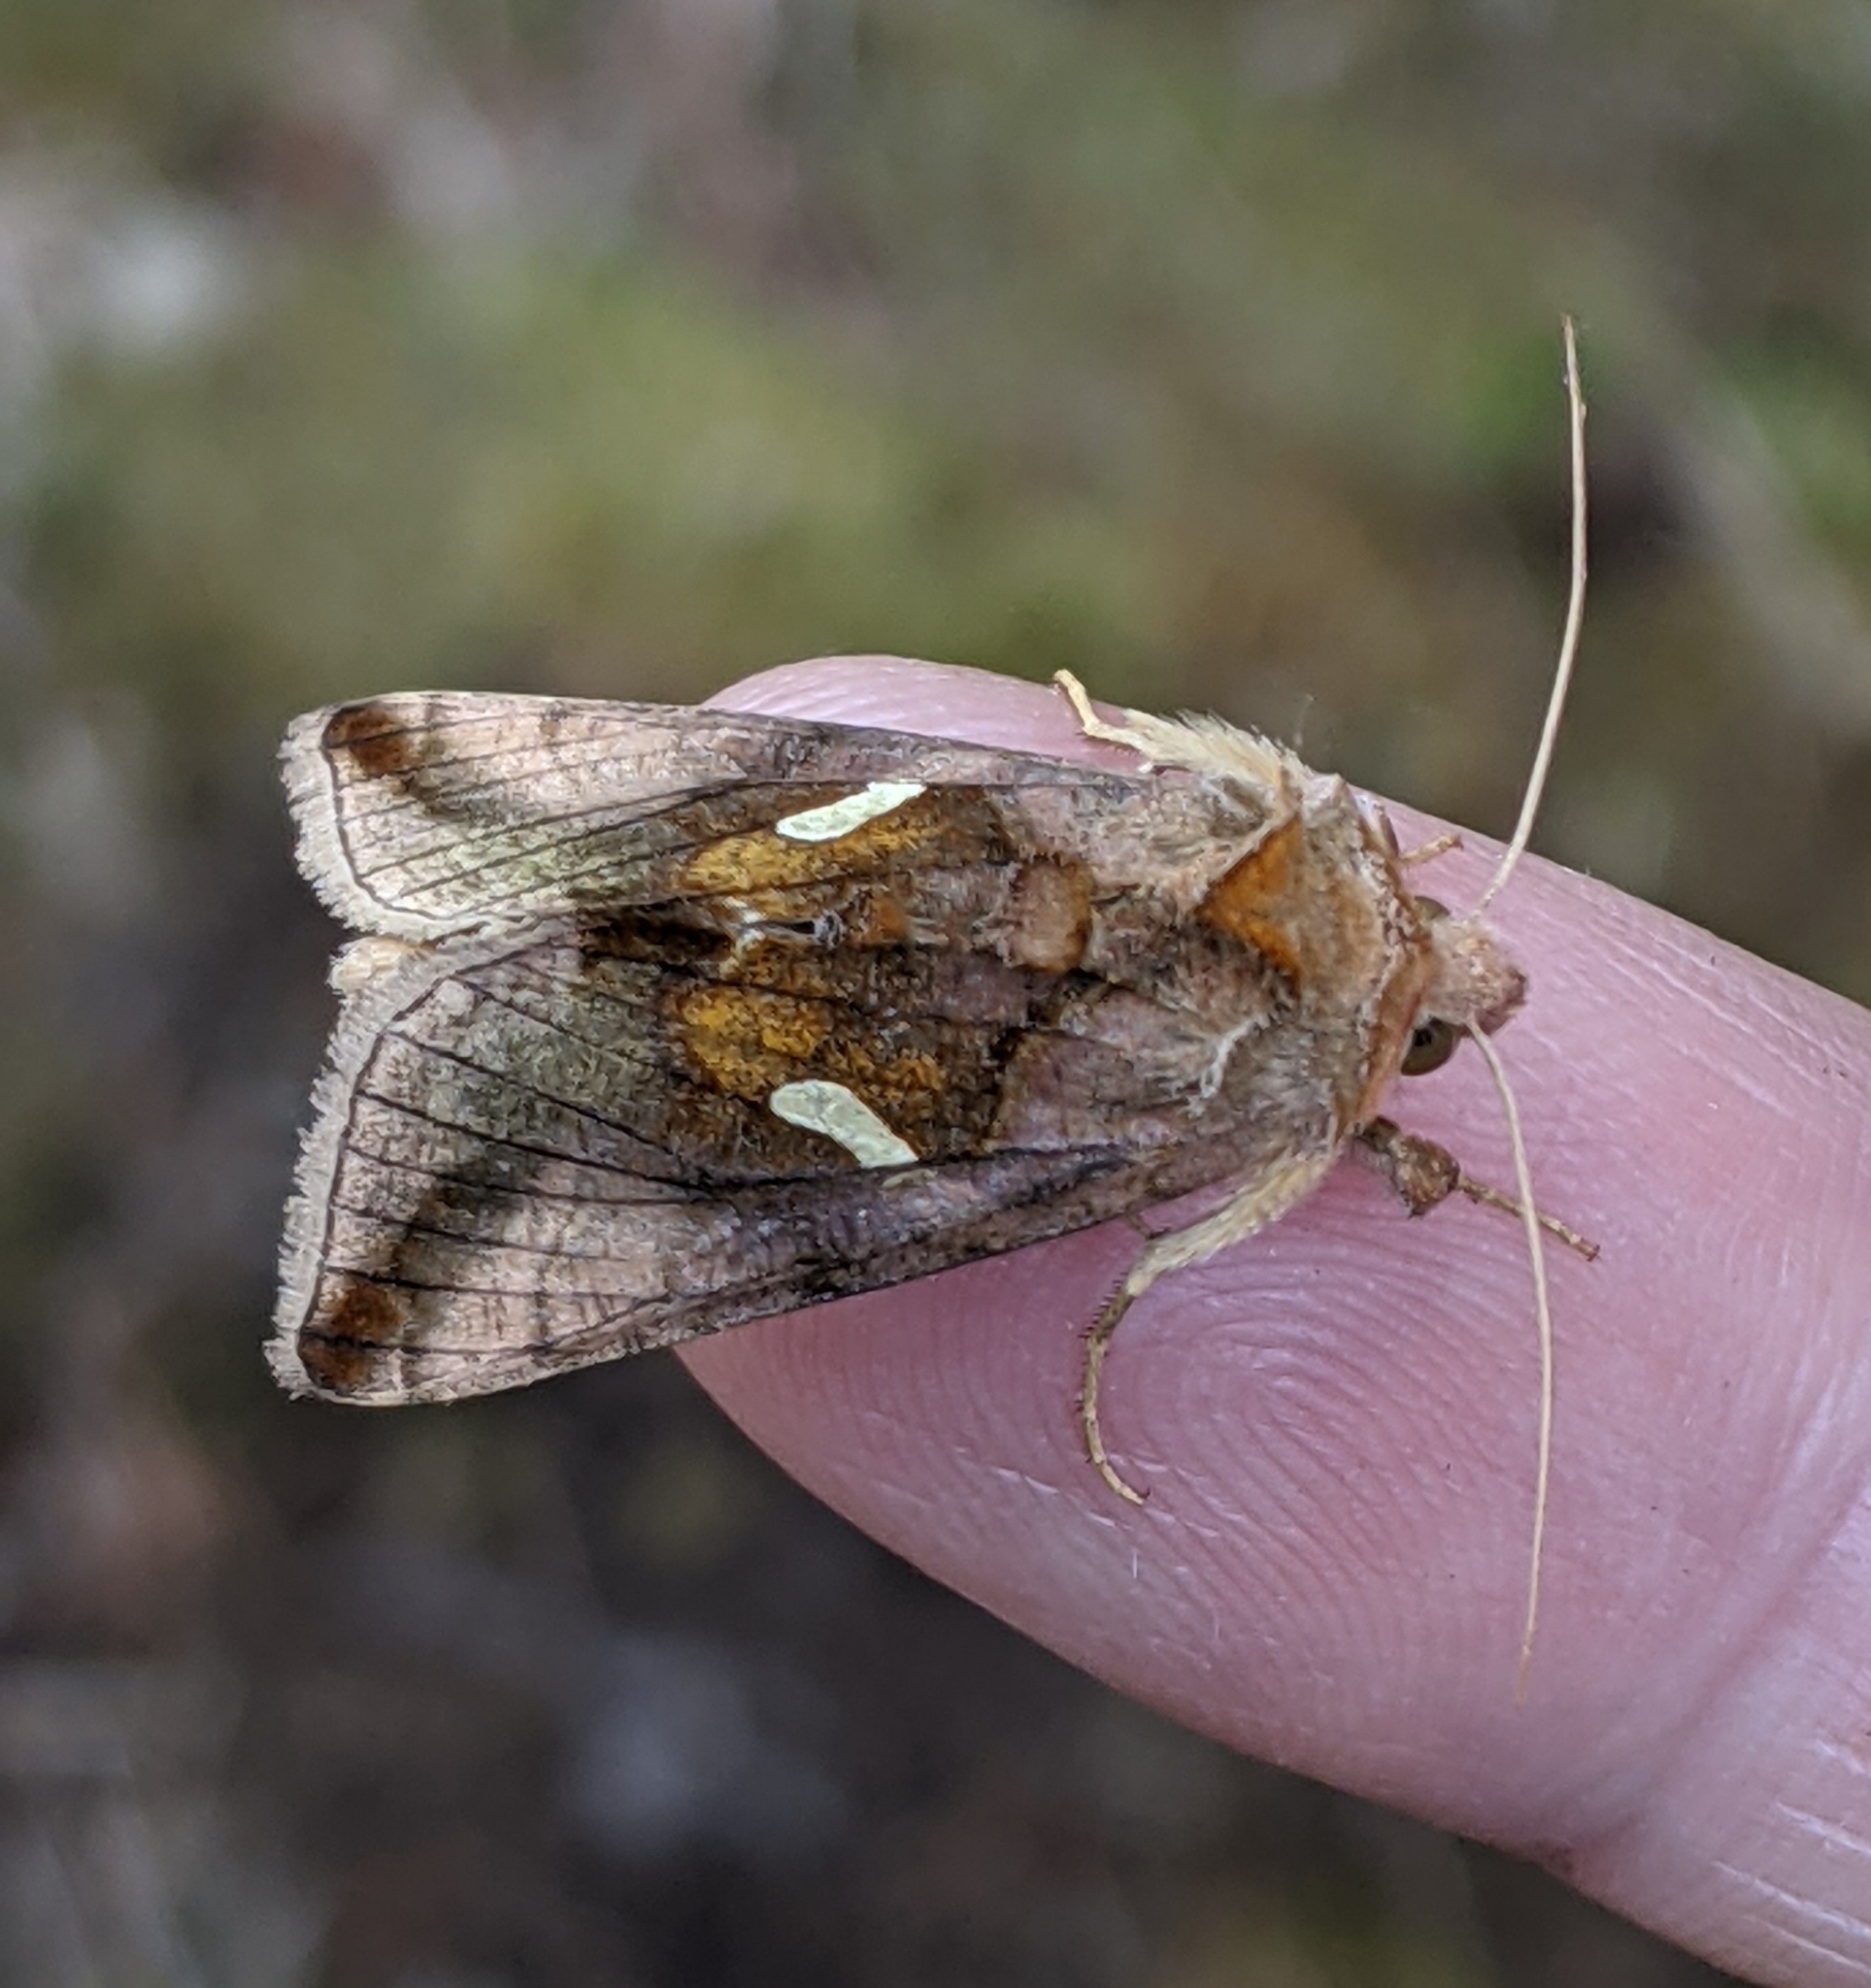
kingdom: Animalia
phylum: Arthropoda
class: Insecta
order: Lepidoptera
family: Noctuidae
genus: Autographa
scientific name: Autographa metallica
